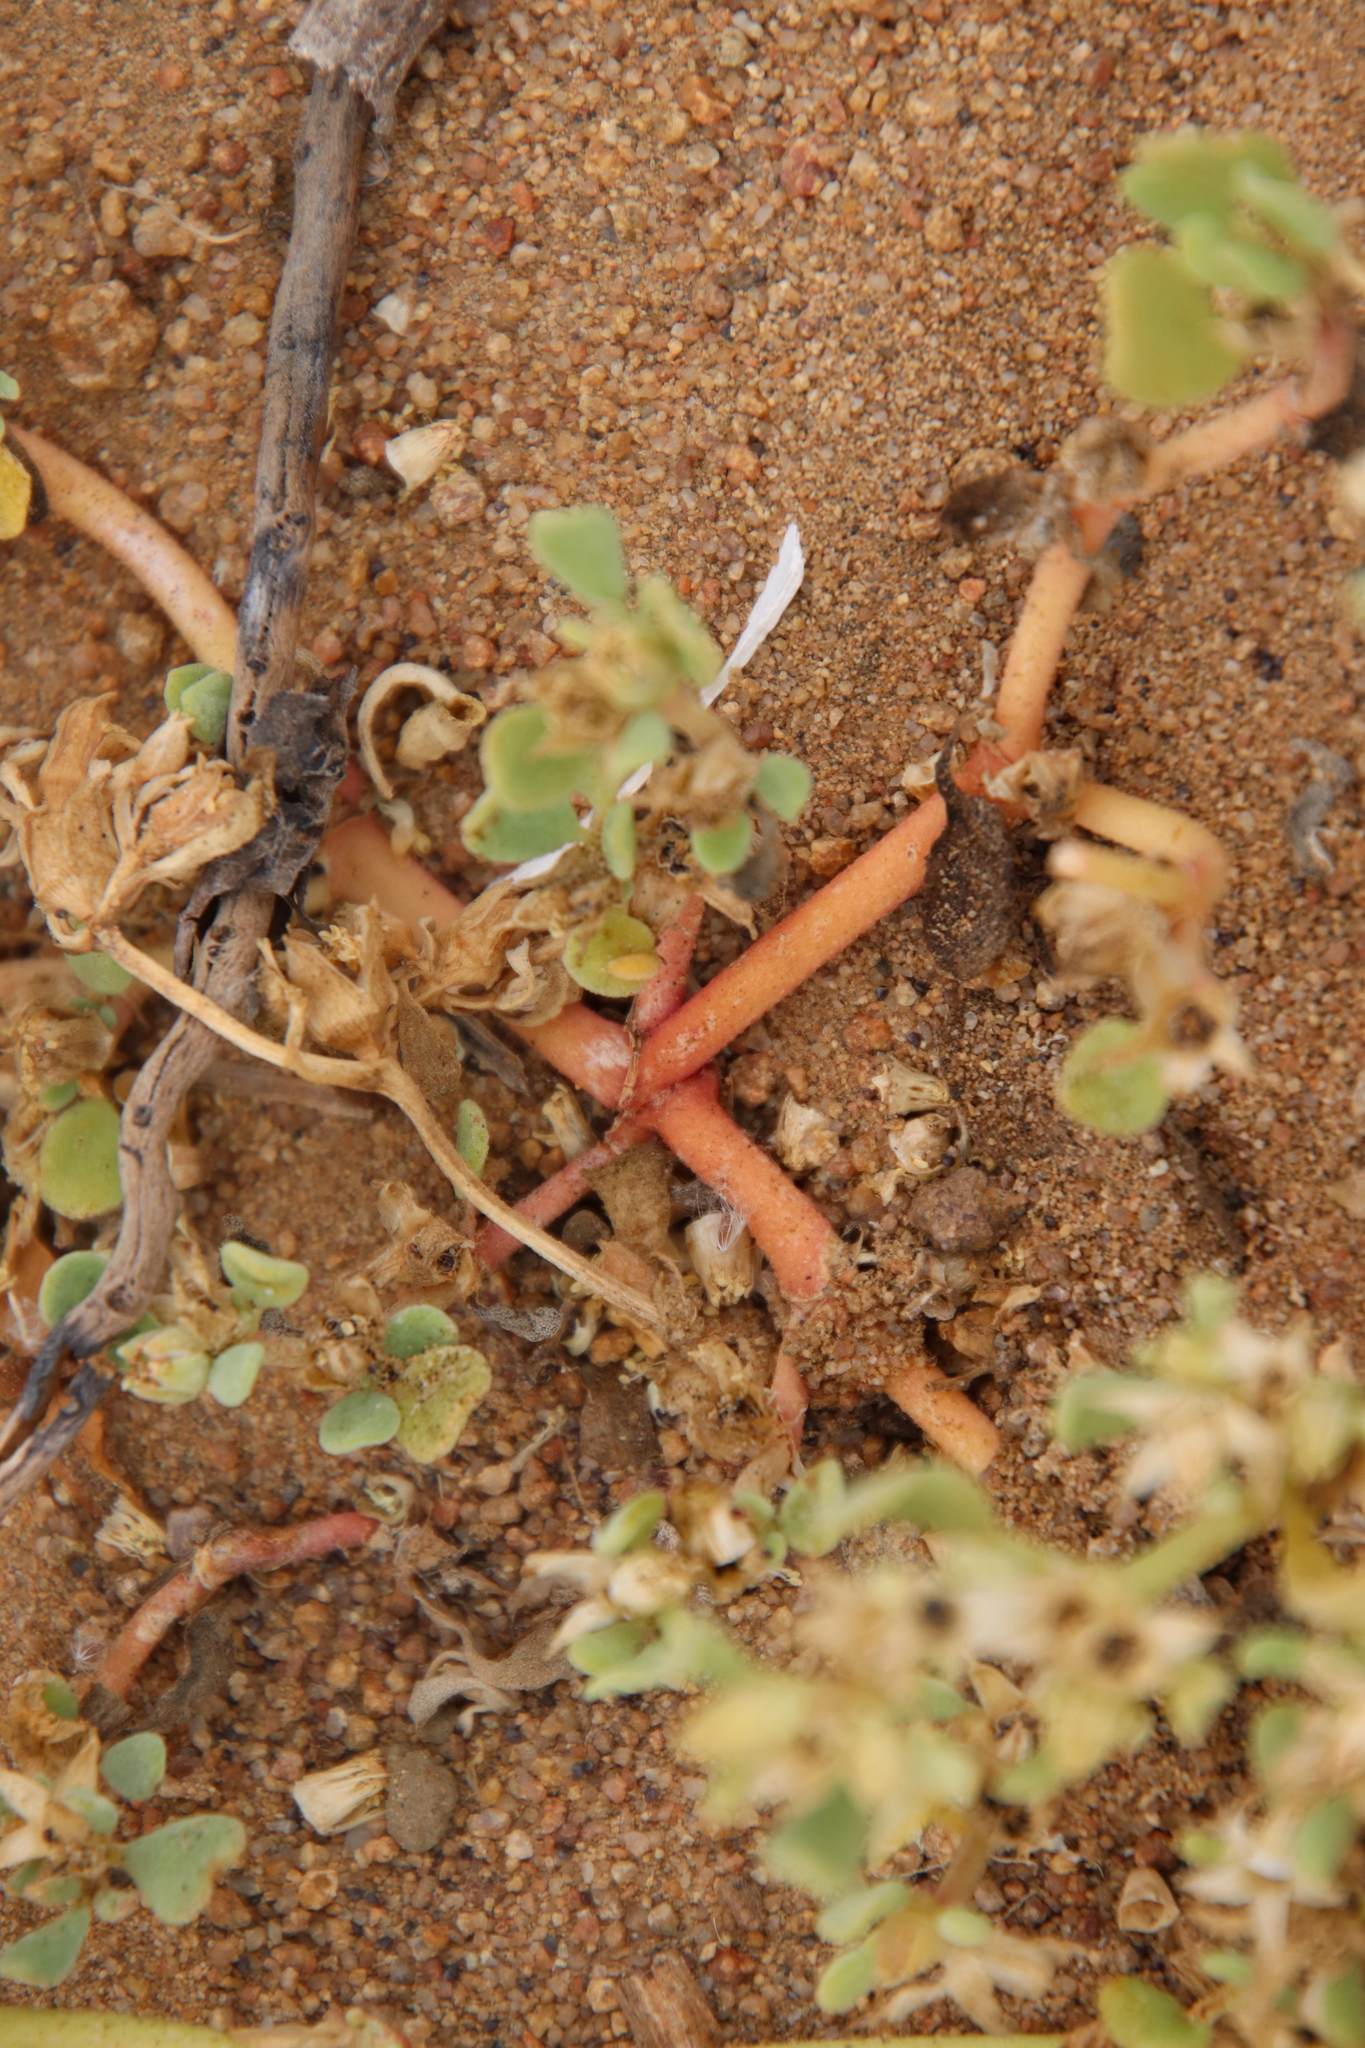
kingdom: Plantae
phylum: Tracheophyta
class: Magnoliopsida
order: Caryophyllales
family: Aizoaceae
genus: Sesuvium
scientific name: Sesuvium revolutifolium
